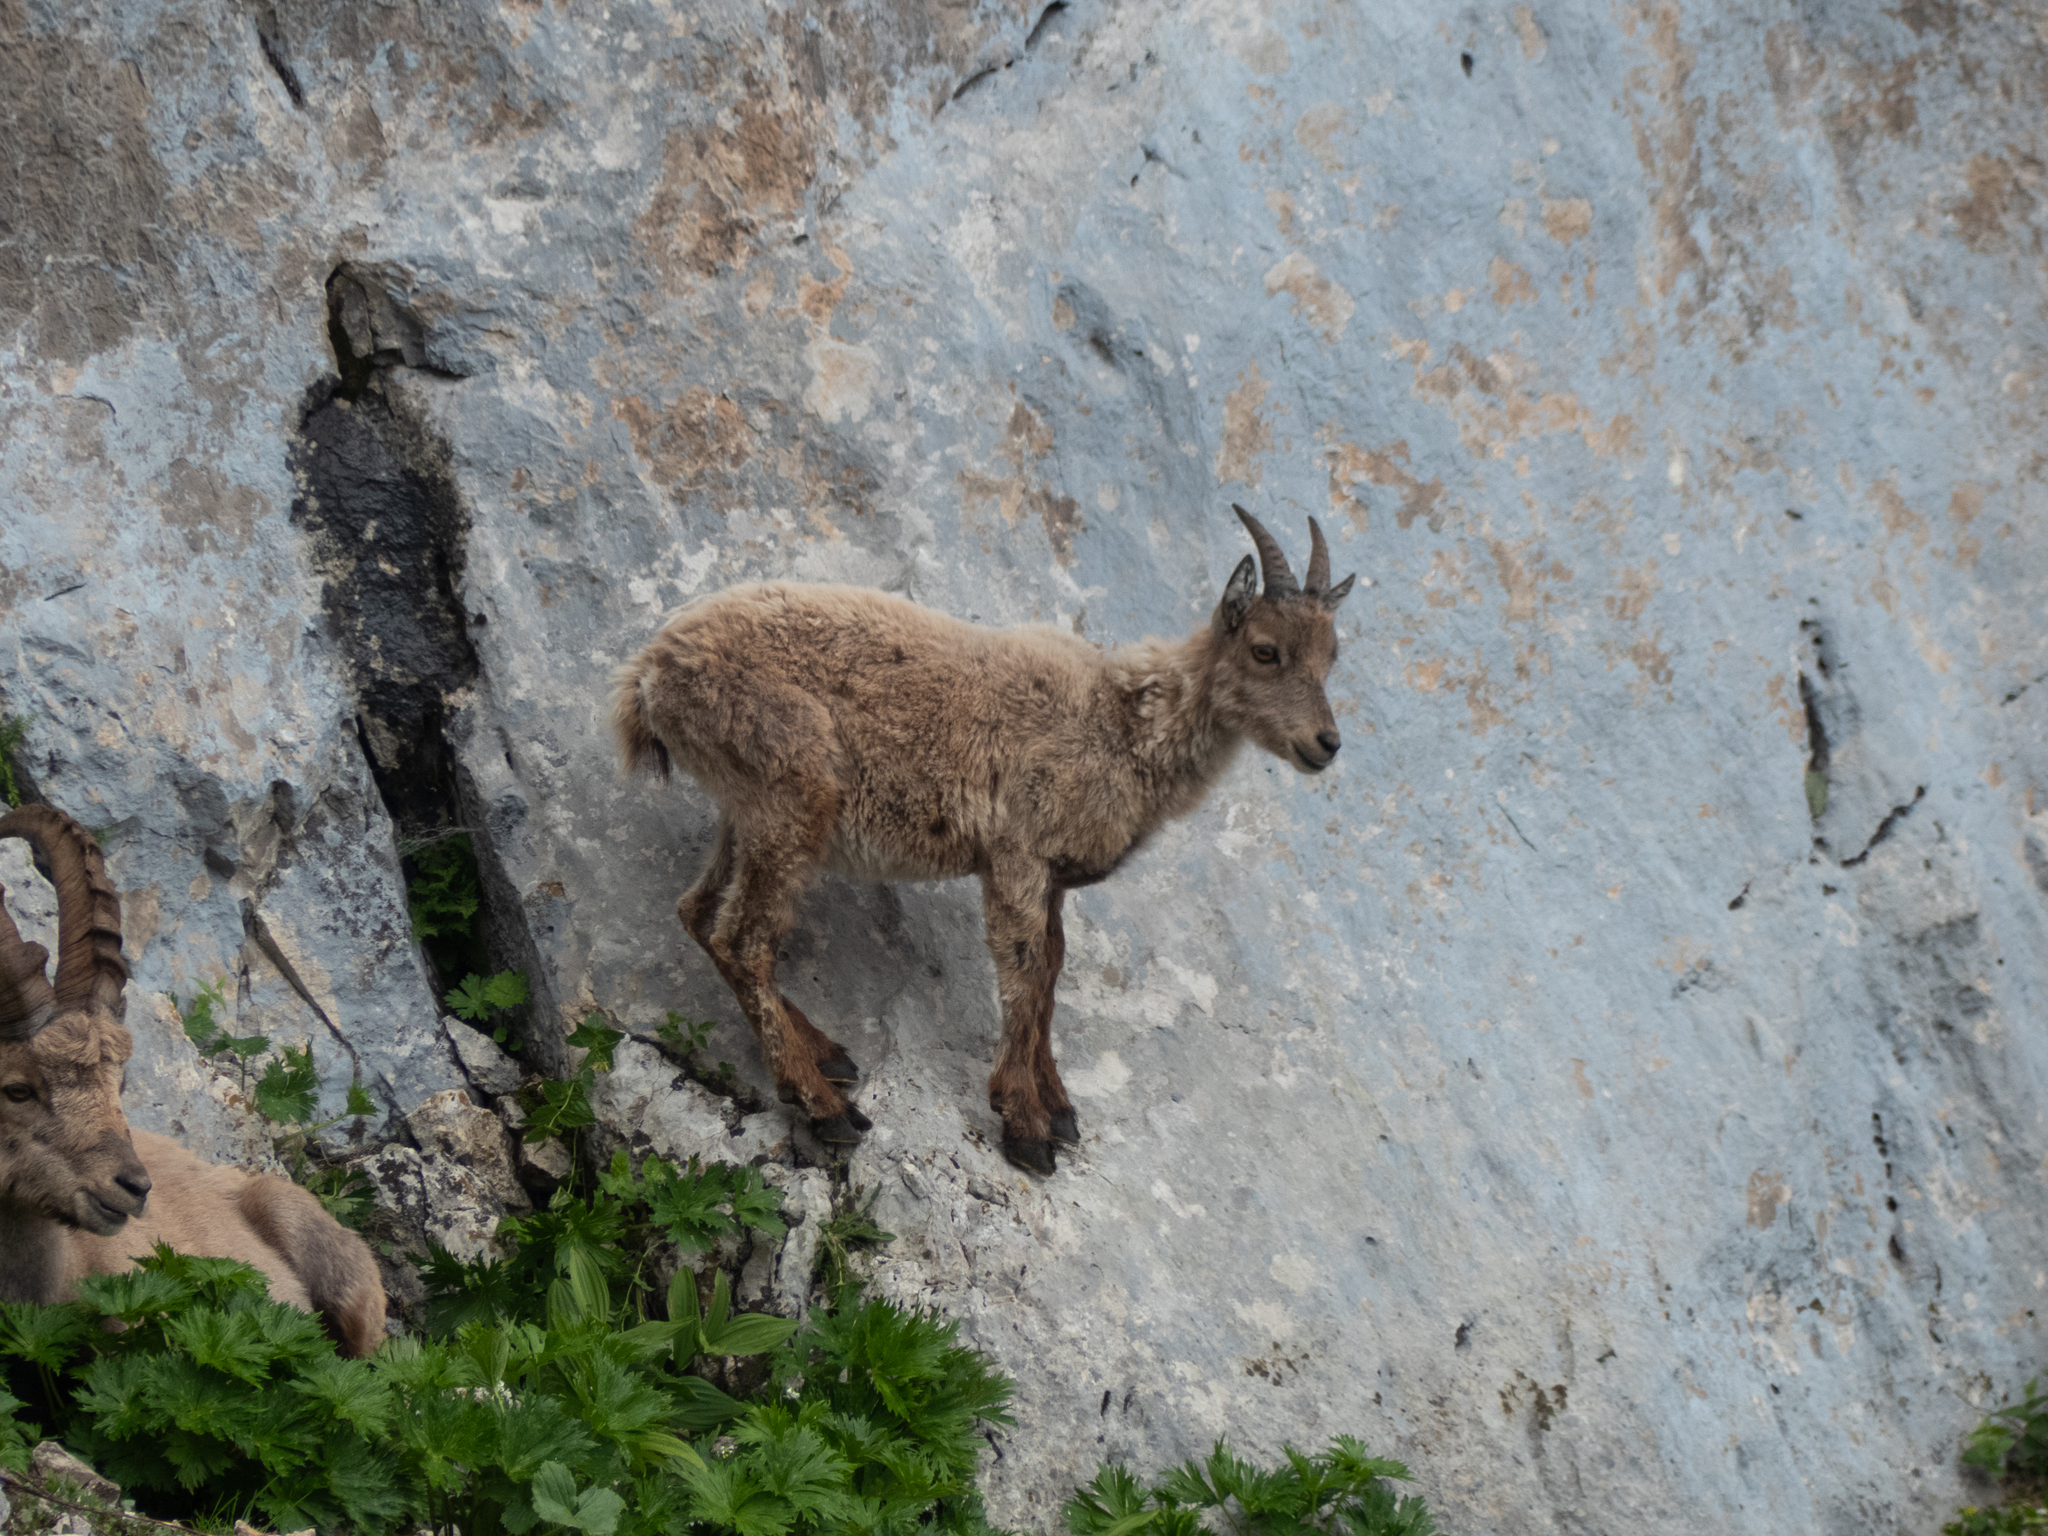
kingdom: Animalia
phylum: Chordata
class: Mammalia
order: Artiodactyla
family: Bovidae
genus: Capra
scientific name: Capra ibex
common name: Alpine ibex
